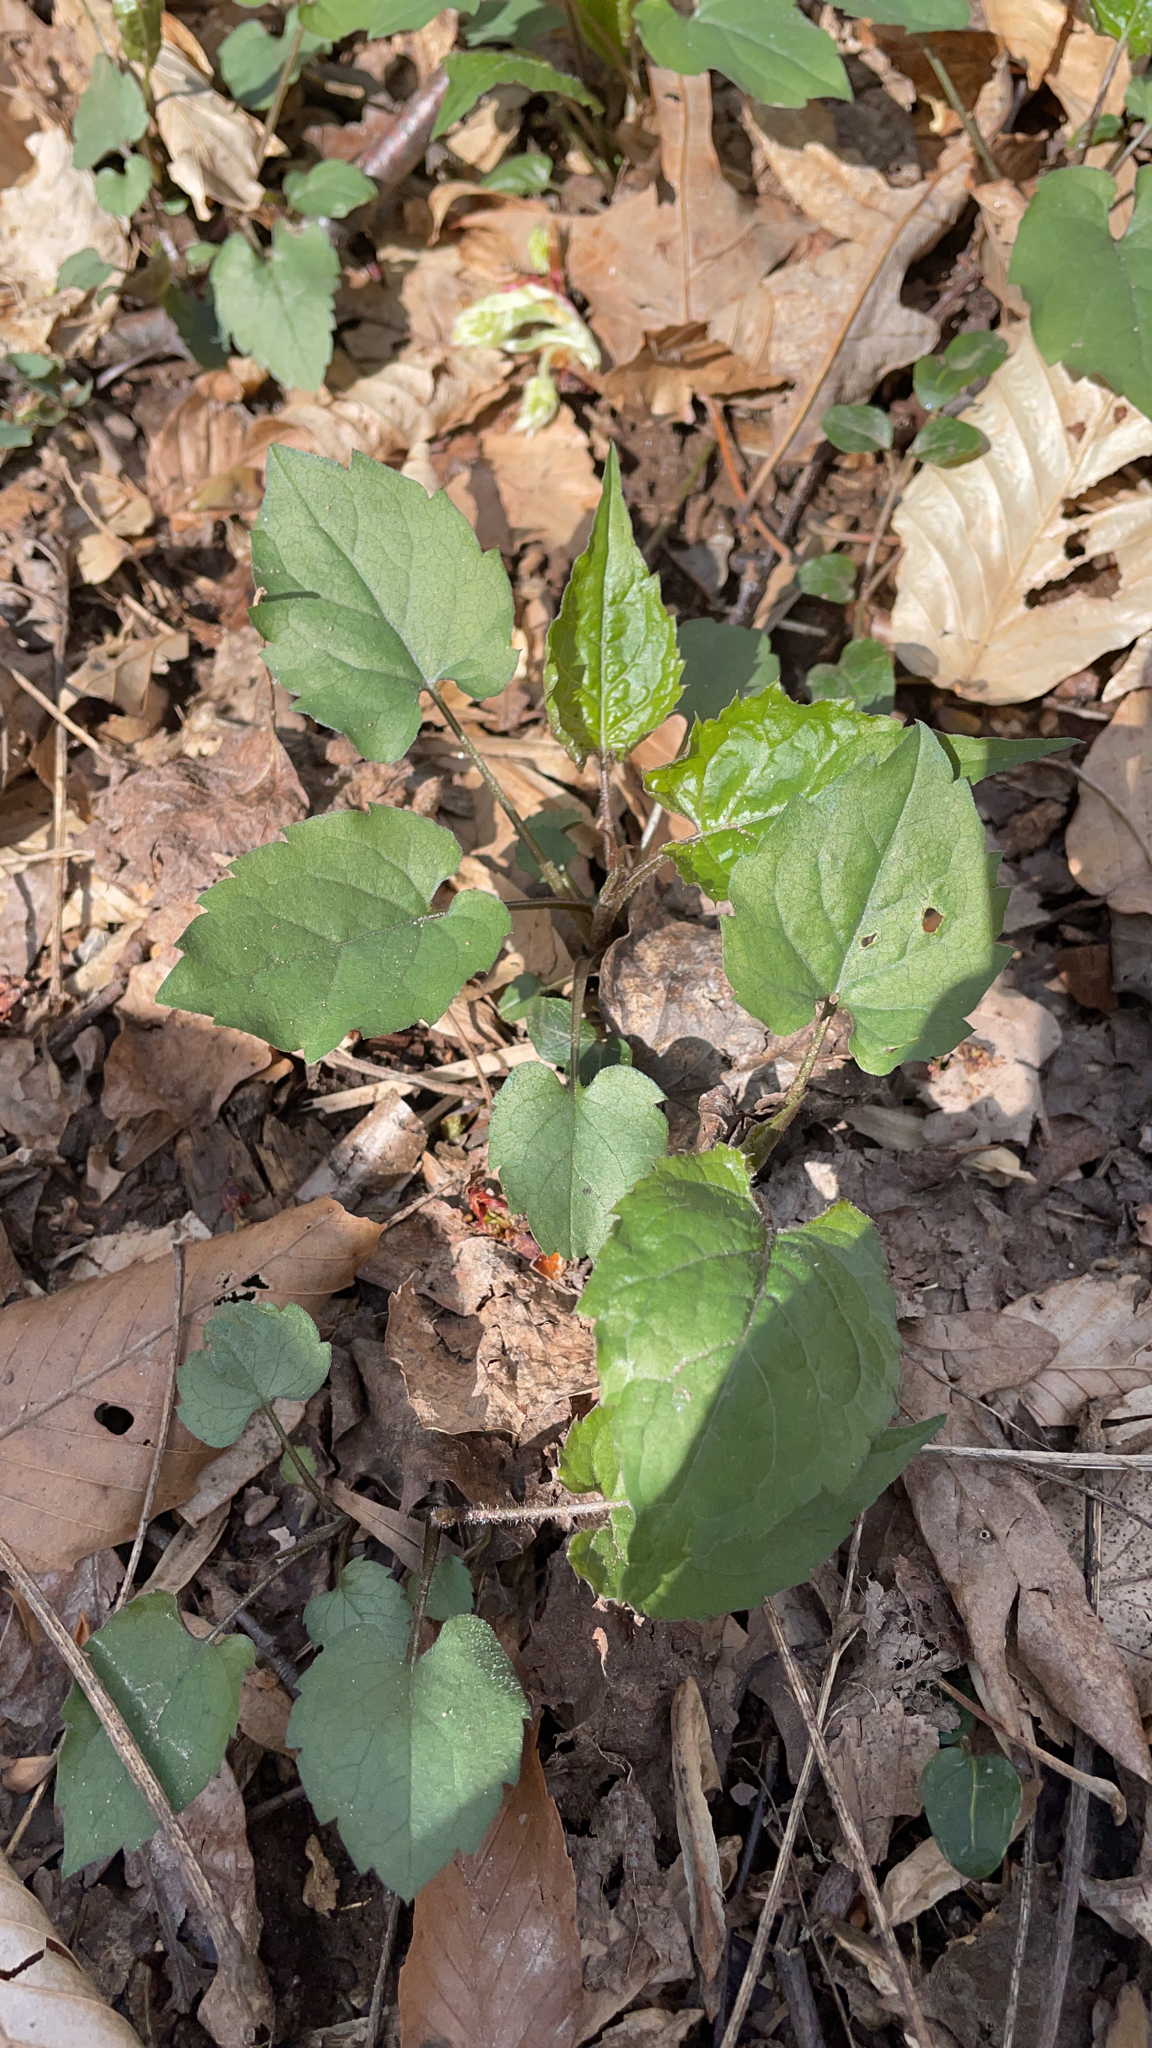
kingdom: Plantae
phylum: Tracheophyta
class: Magnoliopsida
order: Asterales
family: Asteraceae
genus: Eurybia
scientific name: Eurybia divaricata
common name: White wood aster
